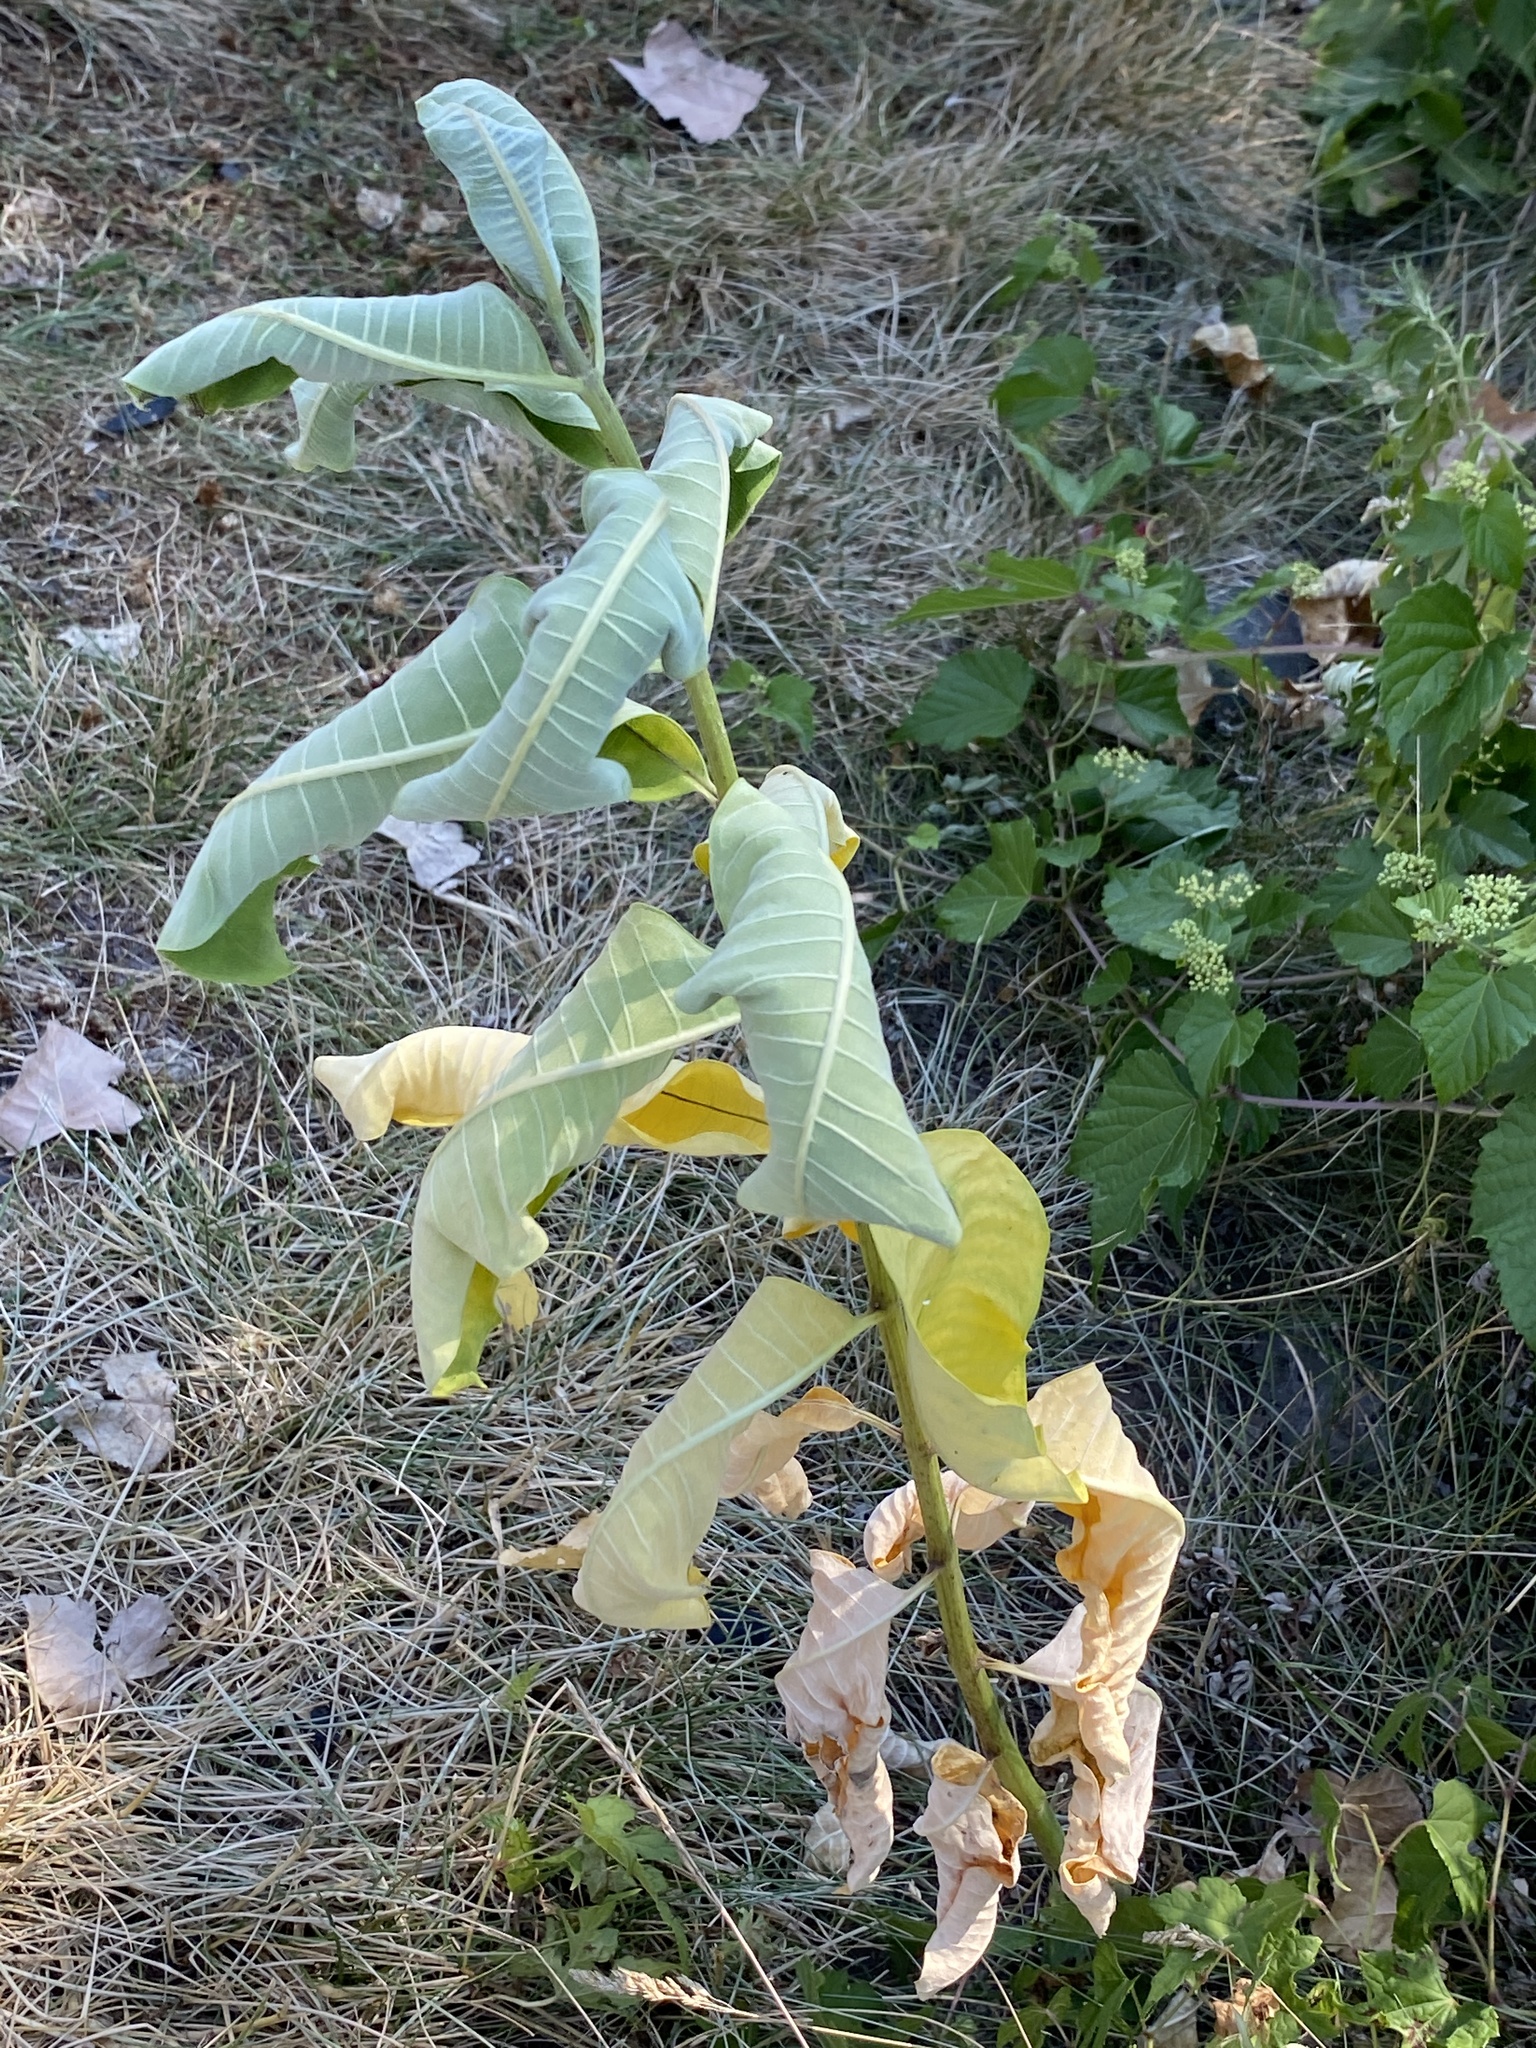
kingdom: Plantae
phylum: Tracheophyta
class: Magnoliopsida
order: Gentianales
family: Apocynaceae
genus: Asclepias
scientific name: Asclepias syriaca
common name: Common milkweed
